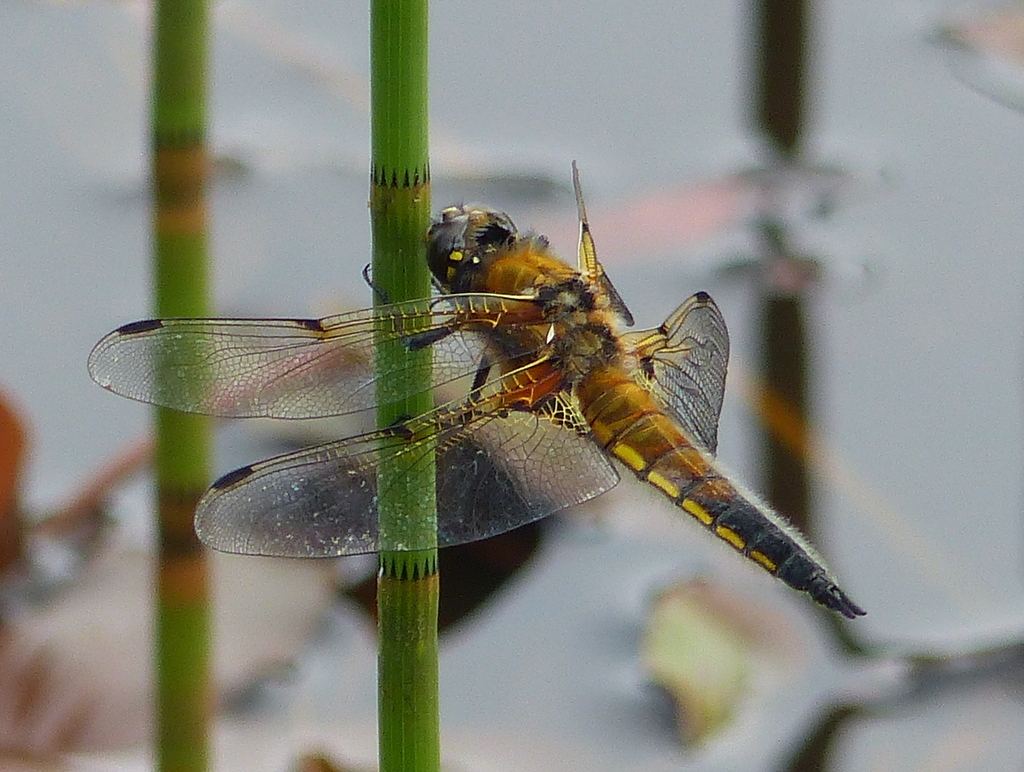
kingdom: Animalia
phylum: Arthropoda
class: Insecta
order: Odonata
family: Libellulidae
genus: Libellula
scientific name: Libellula quadrimaculata
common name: Four-spotted chaser
